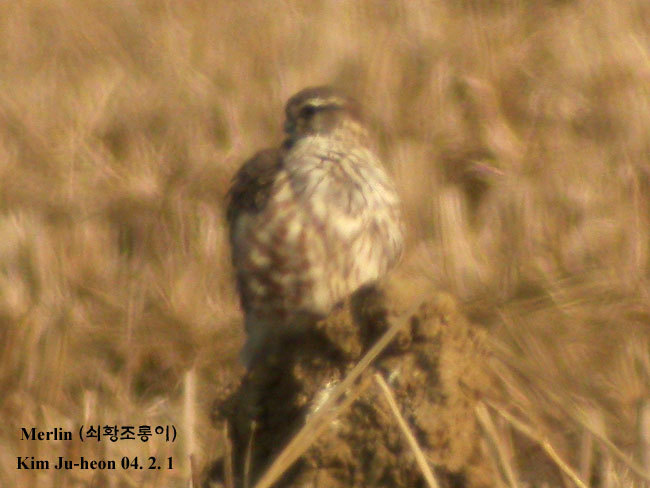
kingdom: Animalia
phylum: Chordata
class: Aves
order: Falconiformes
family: Falconidae
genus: Falco
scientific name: Falco columbarius
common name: Merlin
